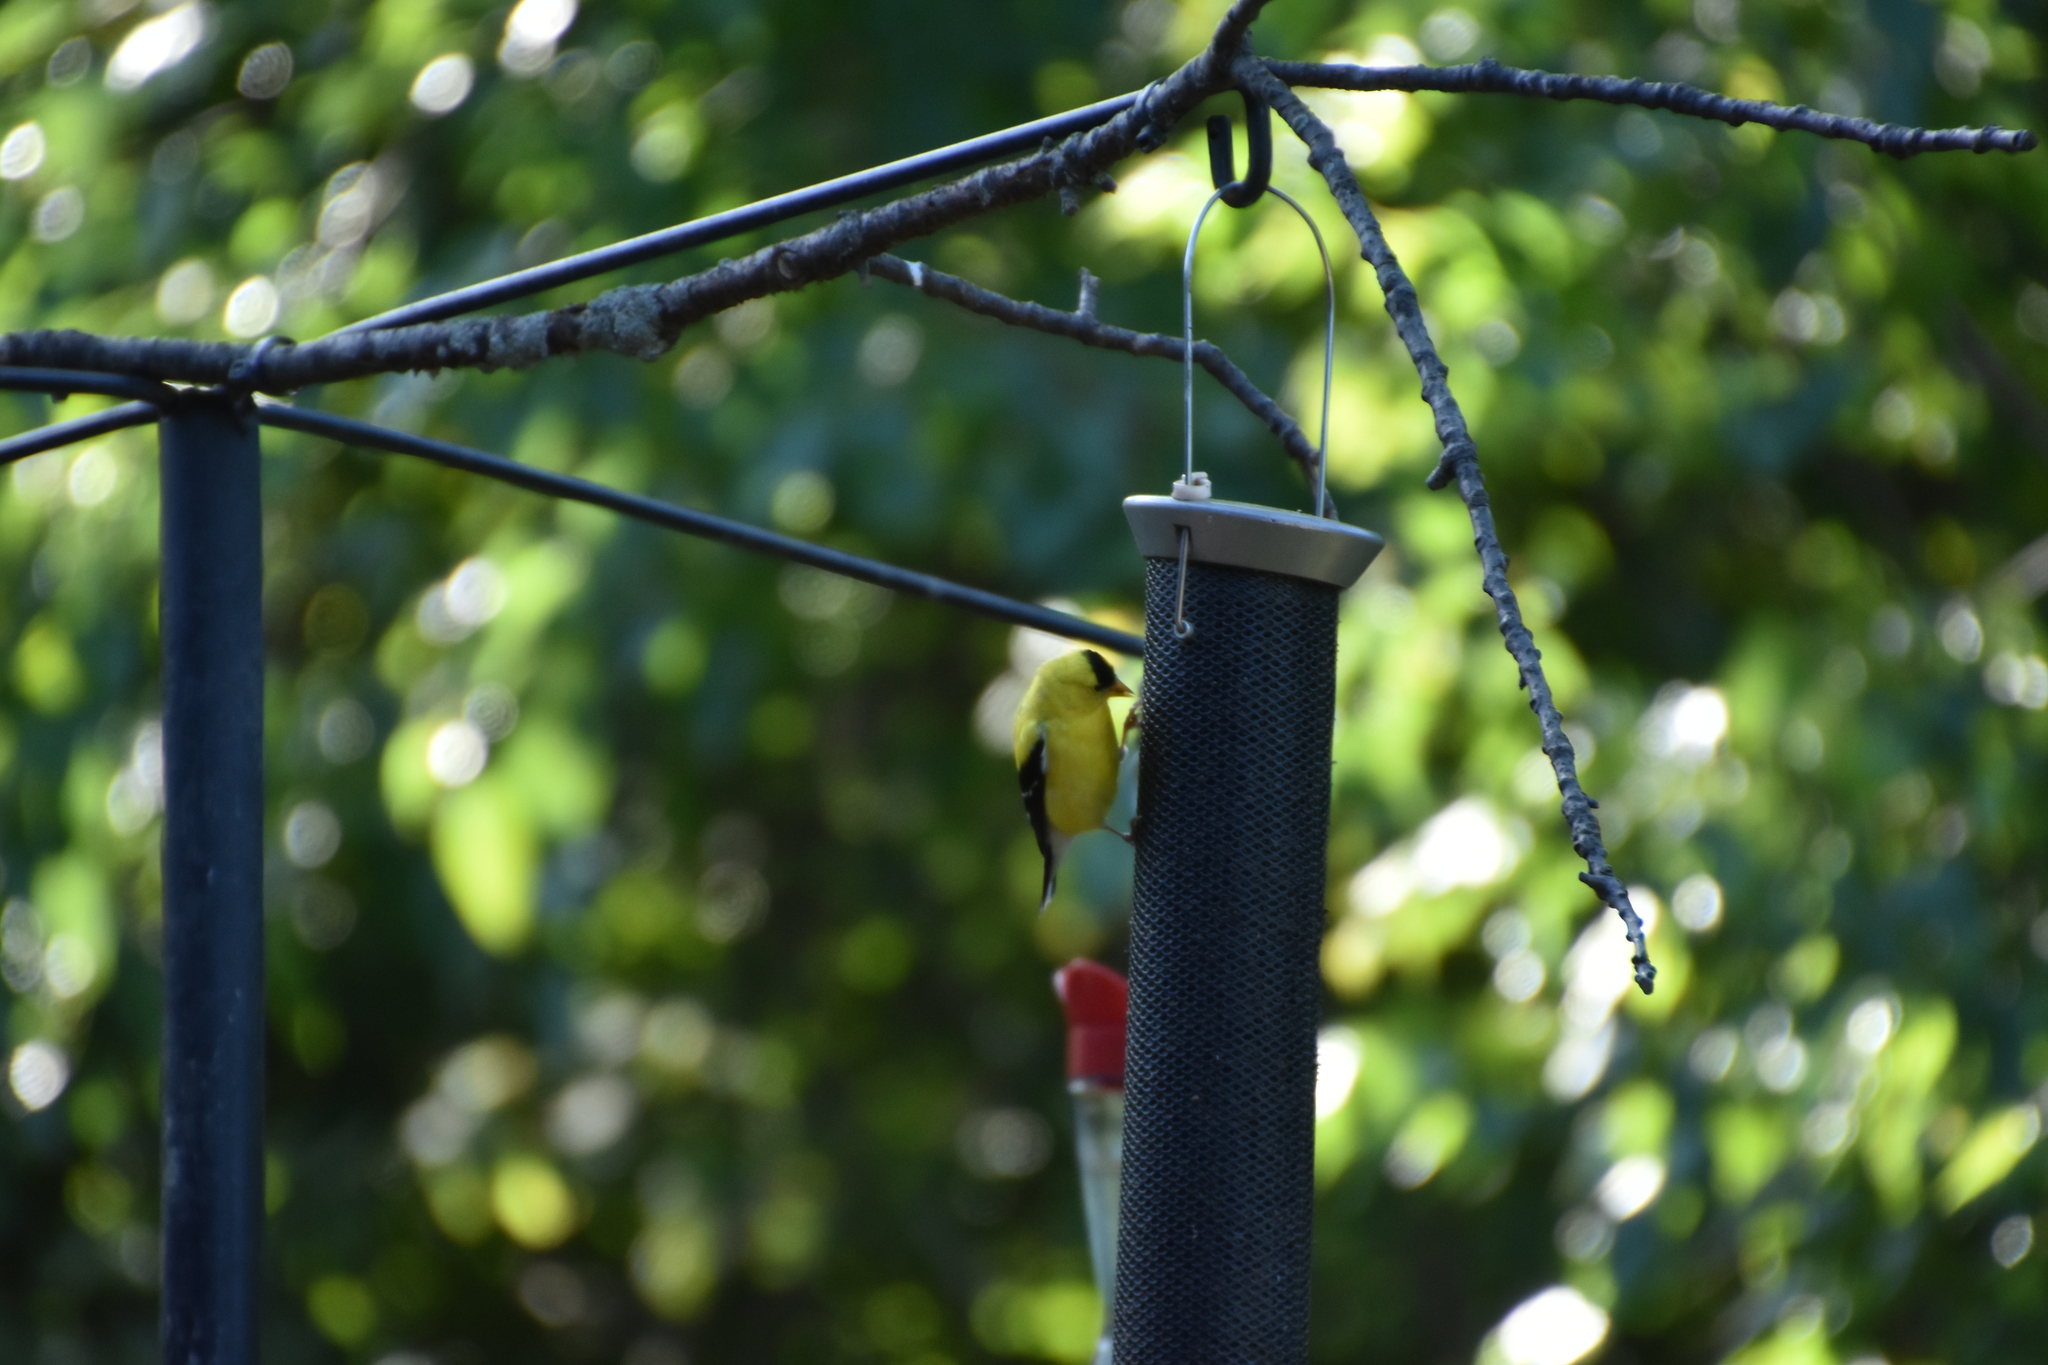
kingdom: Animalia
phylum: Chordata
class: Aves
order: Passeriformes
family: Fringillidae
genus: Spinus
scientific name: Spinus tristis
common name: American goldfinch
